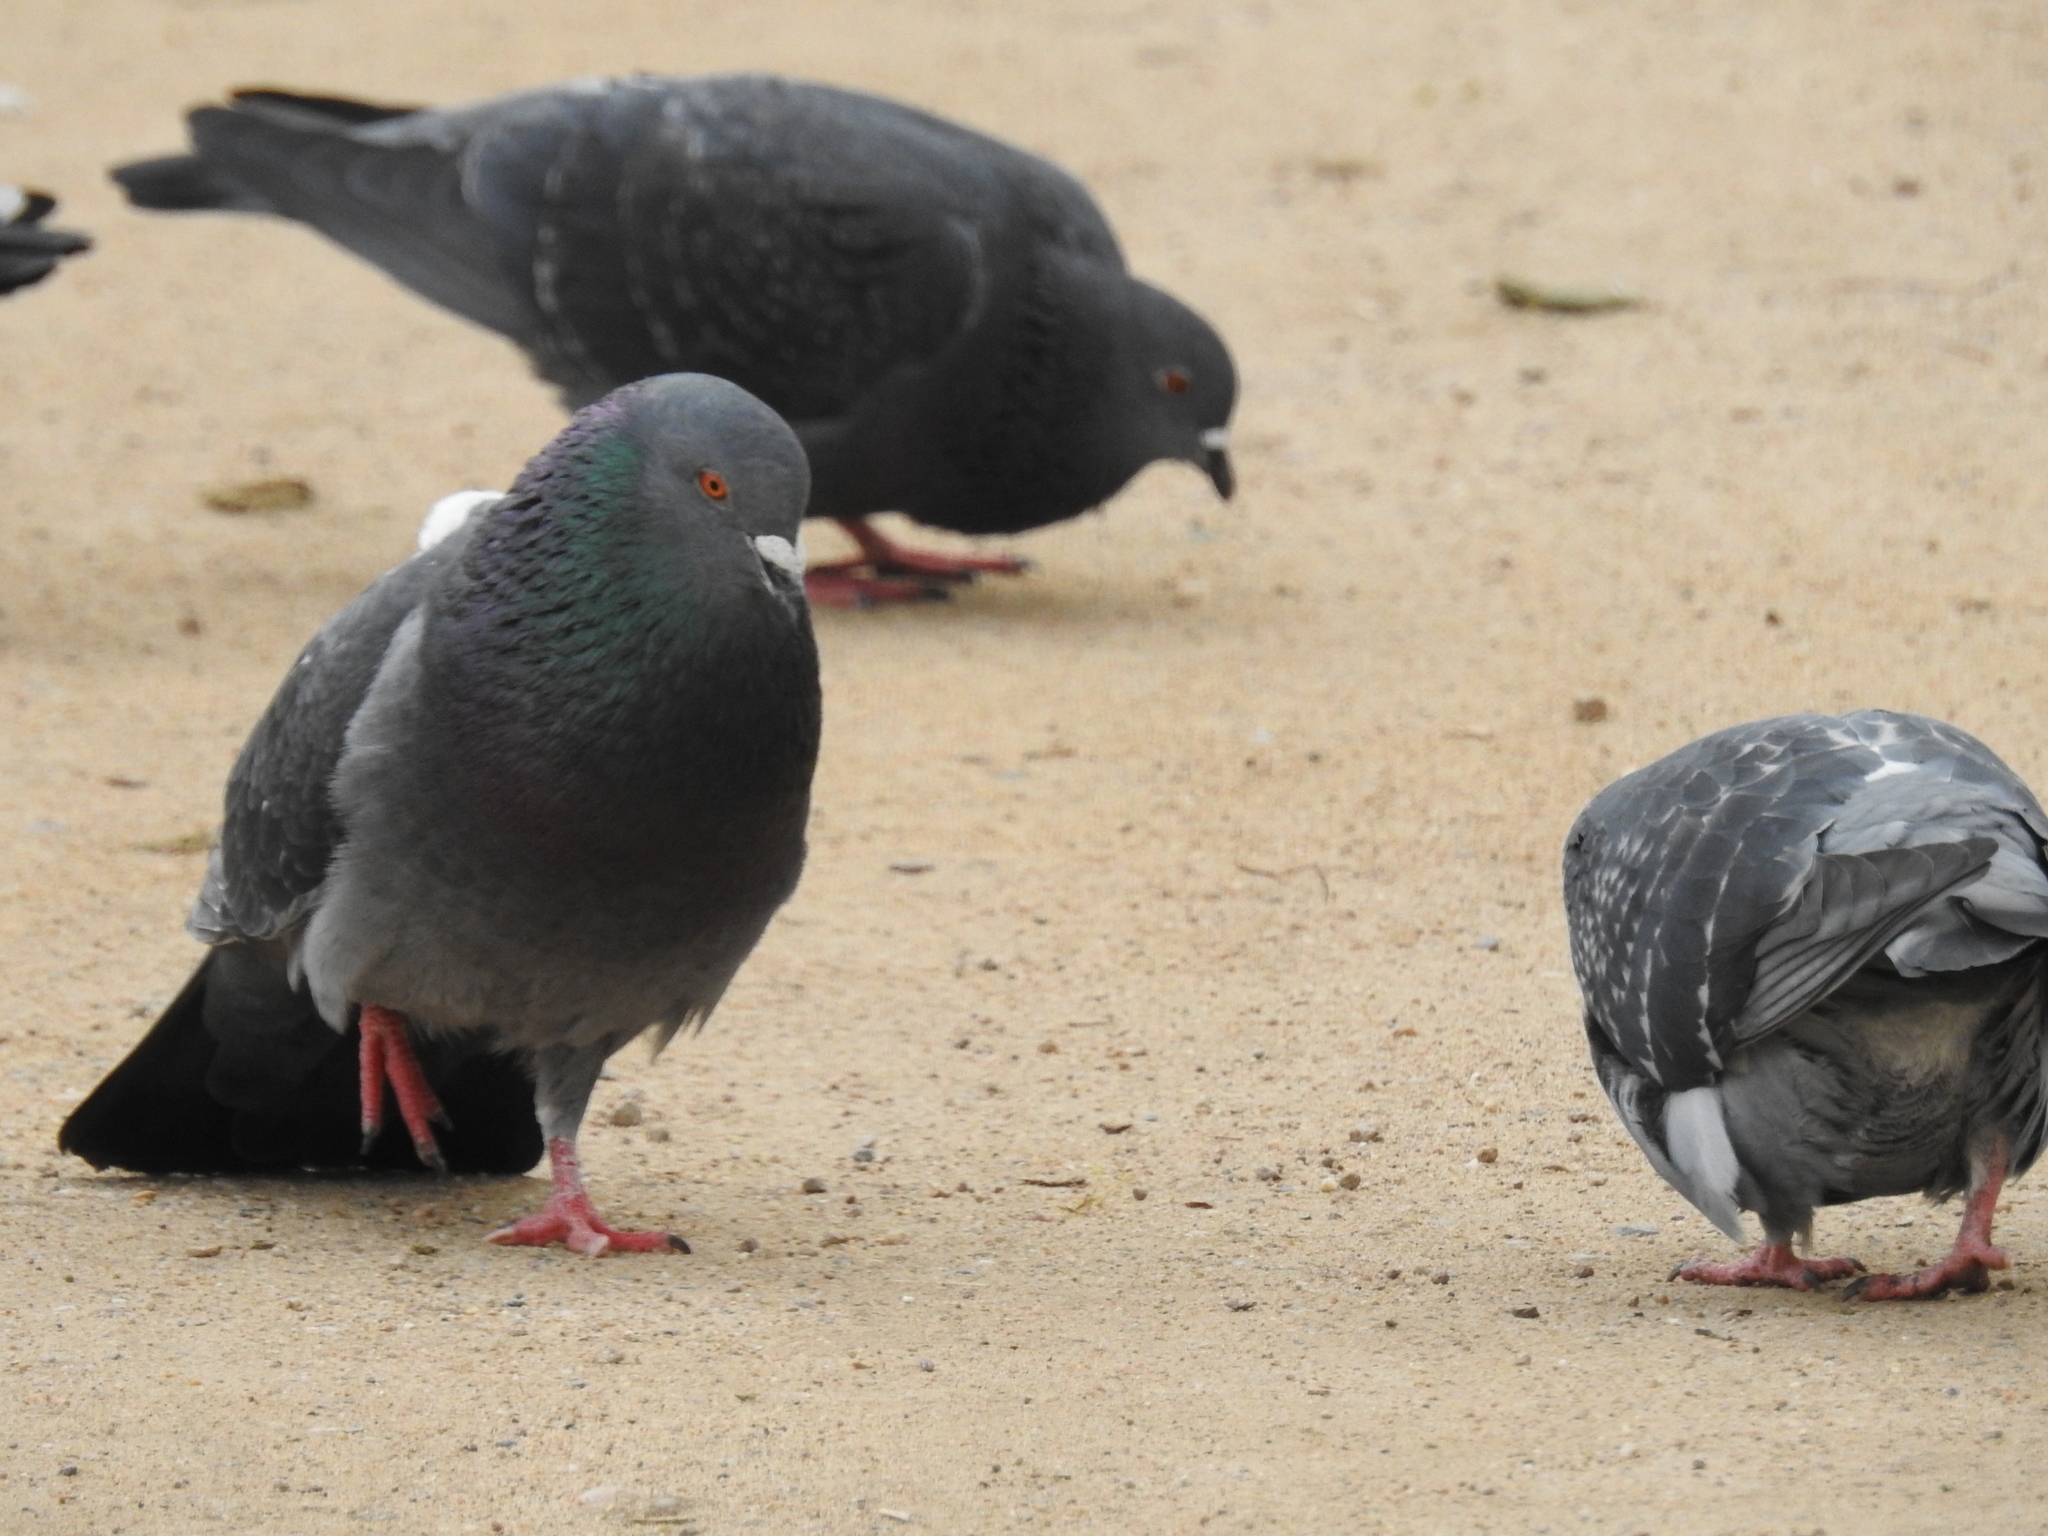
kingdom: Animalia
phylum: Chordata
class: Aves
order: Columbiformes
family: Columbidae
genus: Columba
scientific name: Columba livia
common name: Rock pigeon
